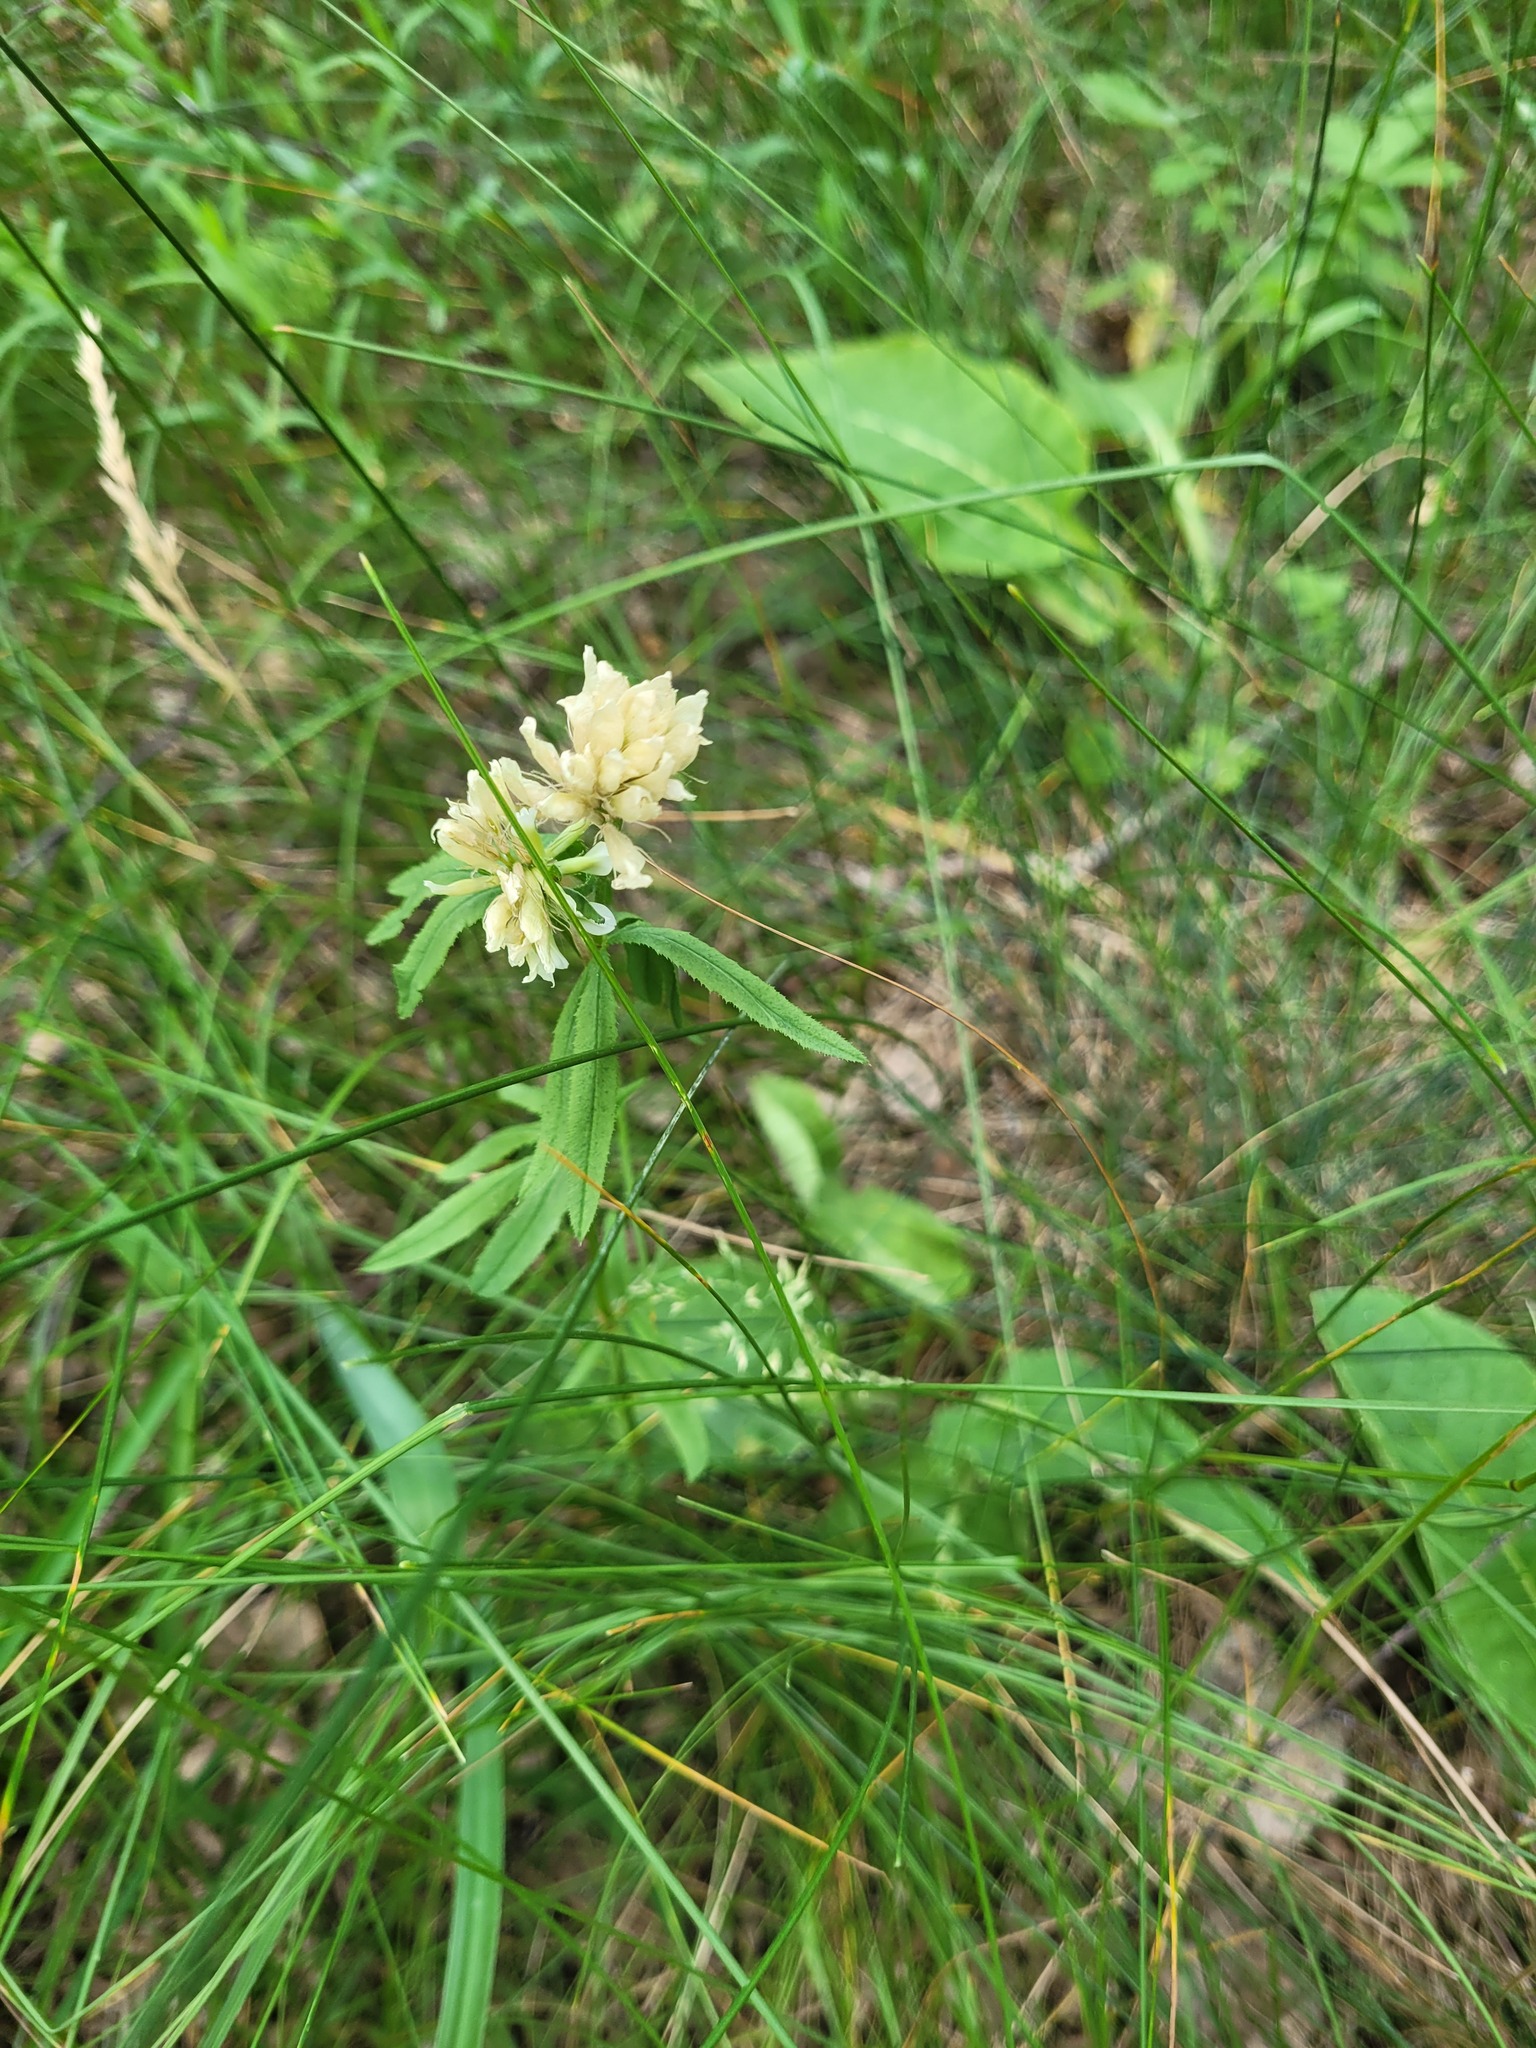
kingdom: Plantae
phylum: Tracheophyta
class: Magnoliopsida
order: Fabales
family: Fabaceae
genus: Trifolium
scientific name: Trifolium lupinaster
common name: Lupine clover
